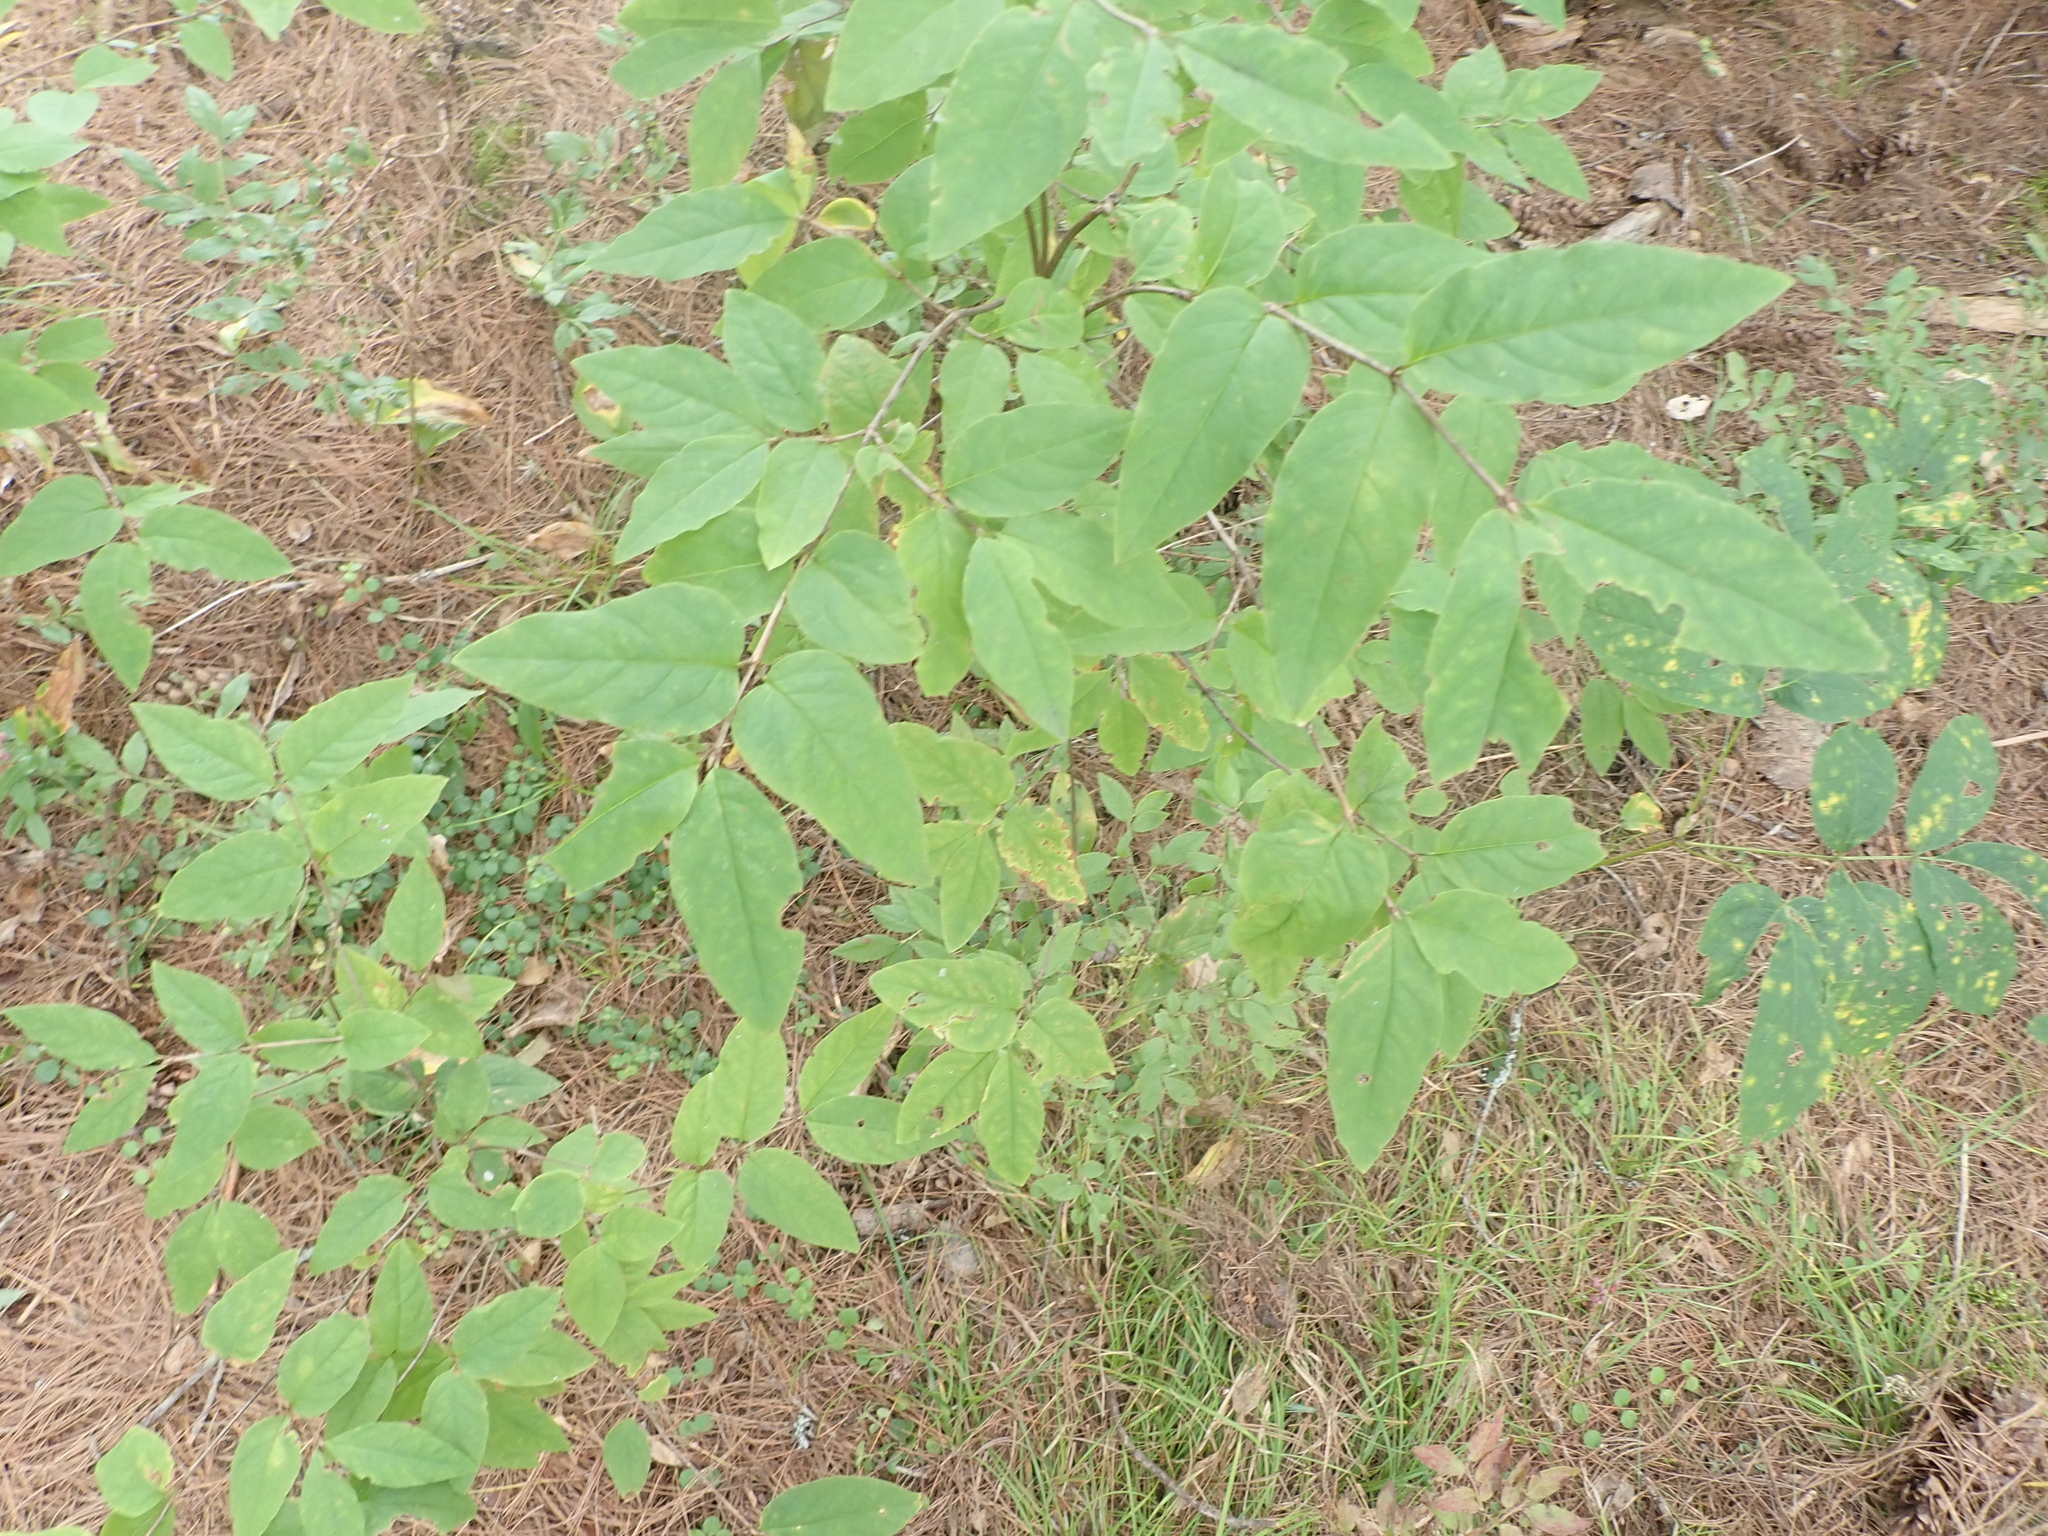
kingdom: Plantae
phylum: Tracheophyta
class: Magnoliopsida
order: Dipsacales
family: Caprifoliaceae
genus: Lonicera
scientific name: Lonicera canadensis
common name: American fly-honeysuckle
